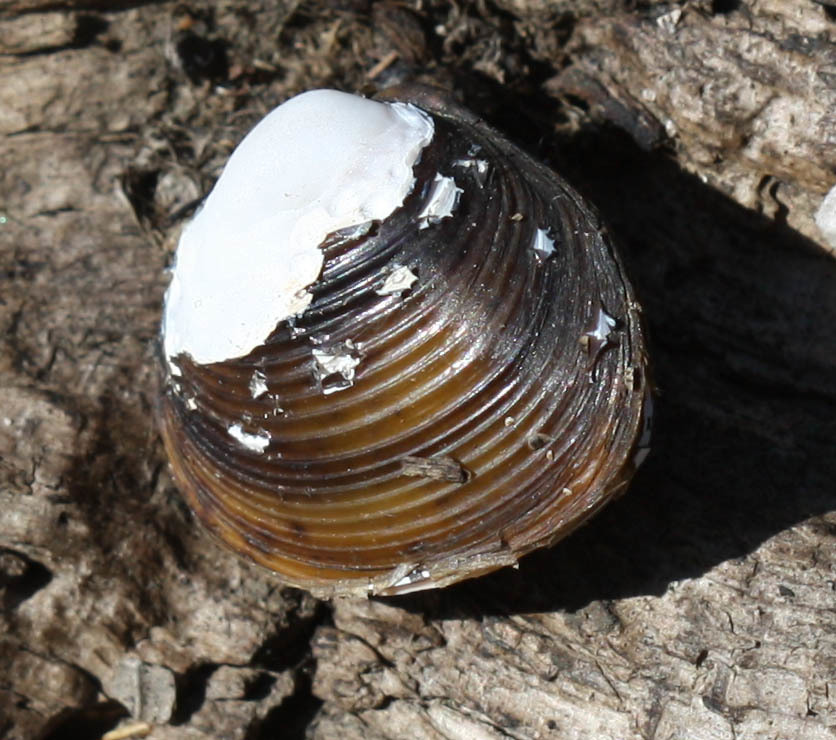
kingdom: Animalia
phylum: Mollusca
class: Bivalvia
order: Venerida
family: Cyrenidae
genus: Corbicula
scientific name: Corbicula fluminea
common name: Asian clam
